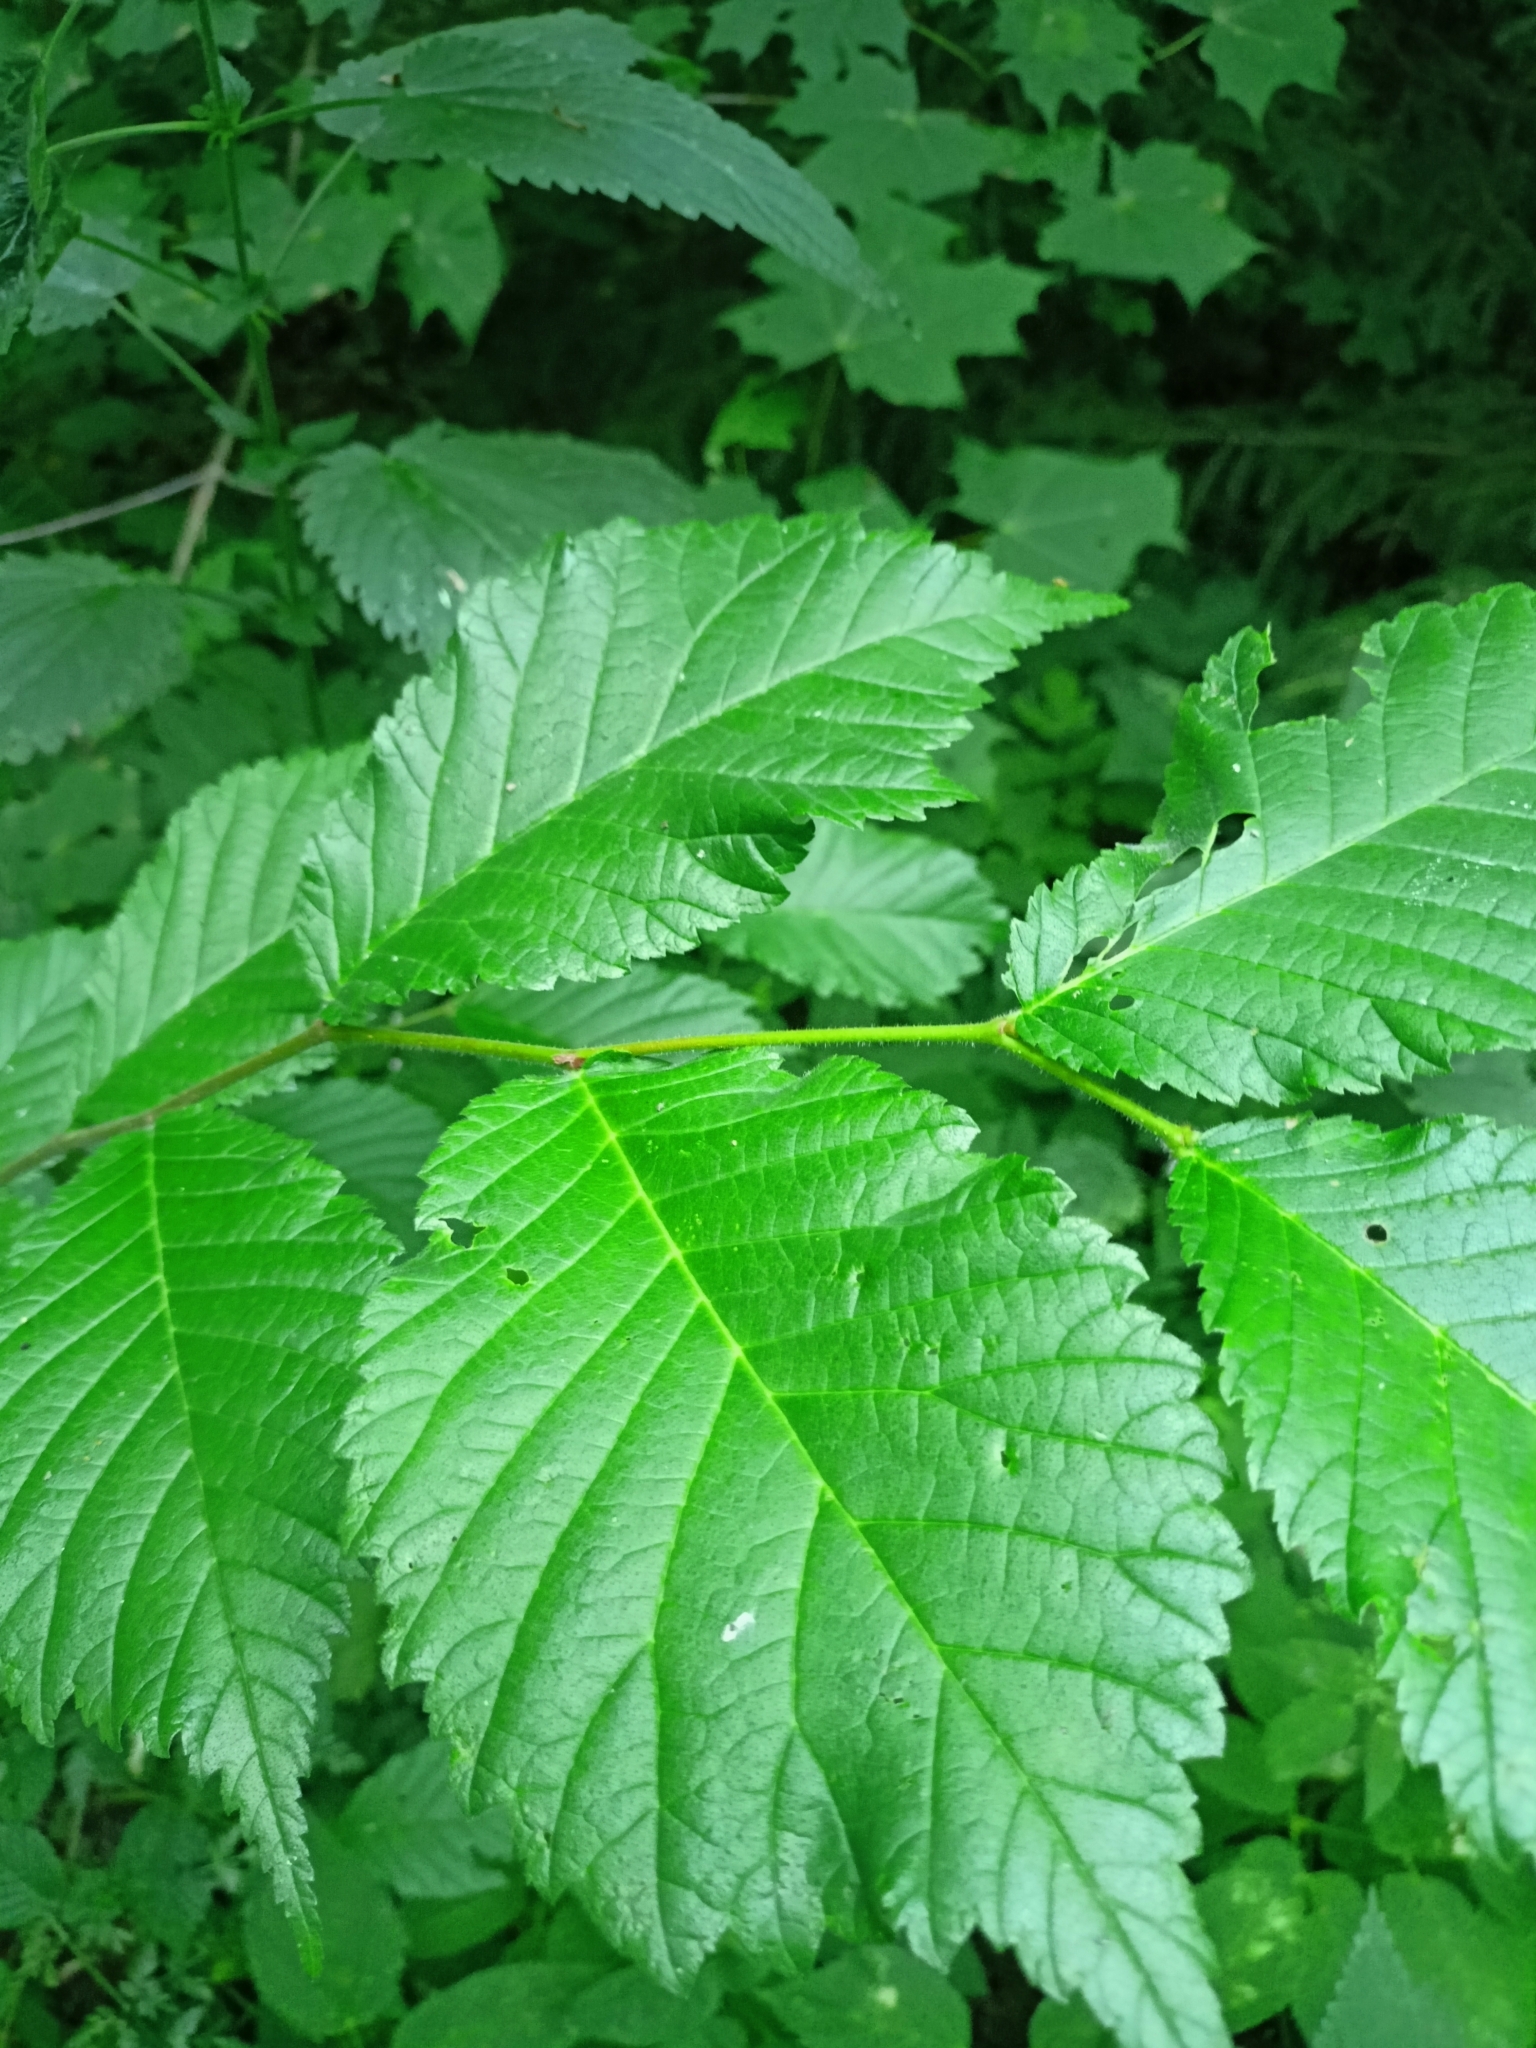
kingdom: Plantae
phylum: Tracheophyta
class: Magnoliopsida
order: Rosales
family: Ulmaceae
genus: Ulmus
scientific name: Ulmus glabra
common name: Wych elm
